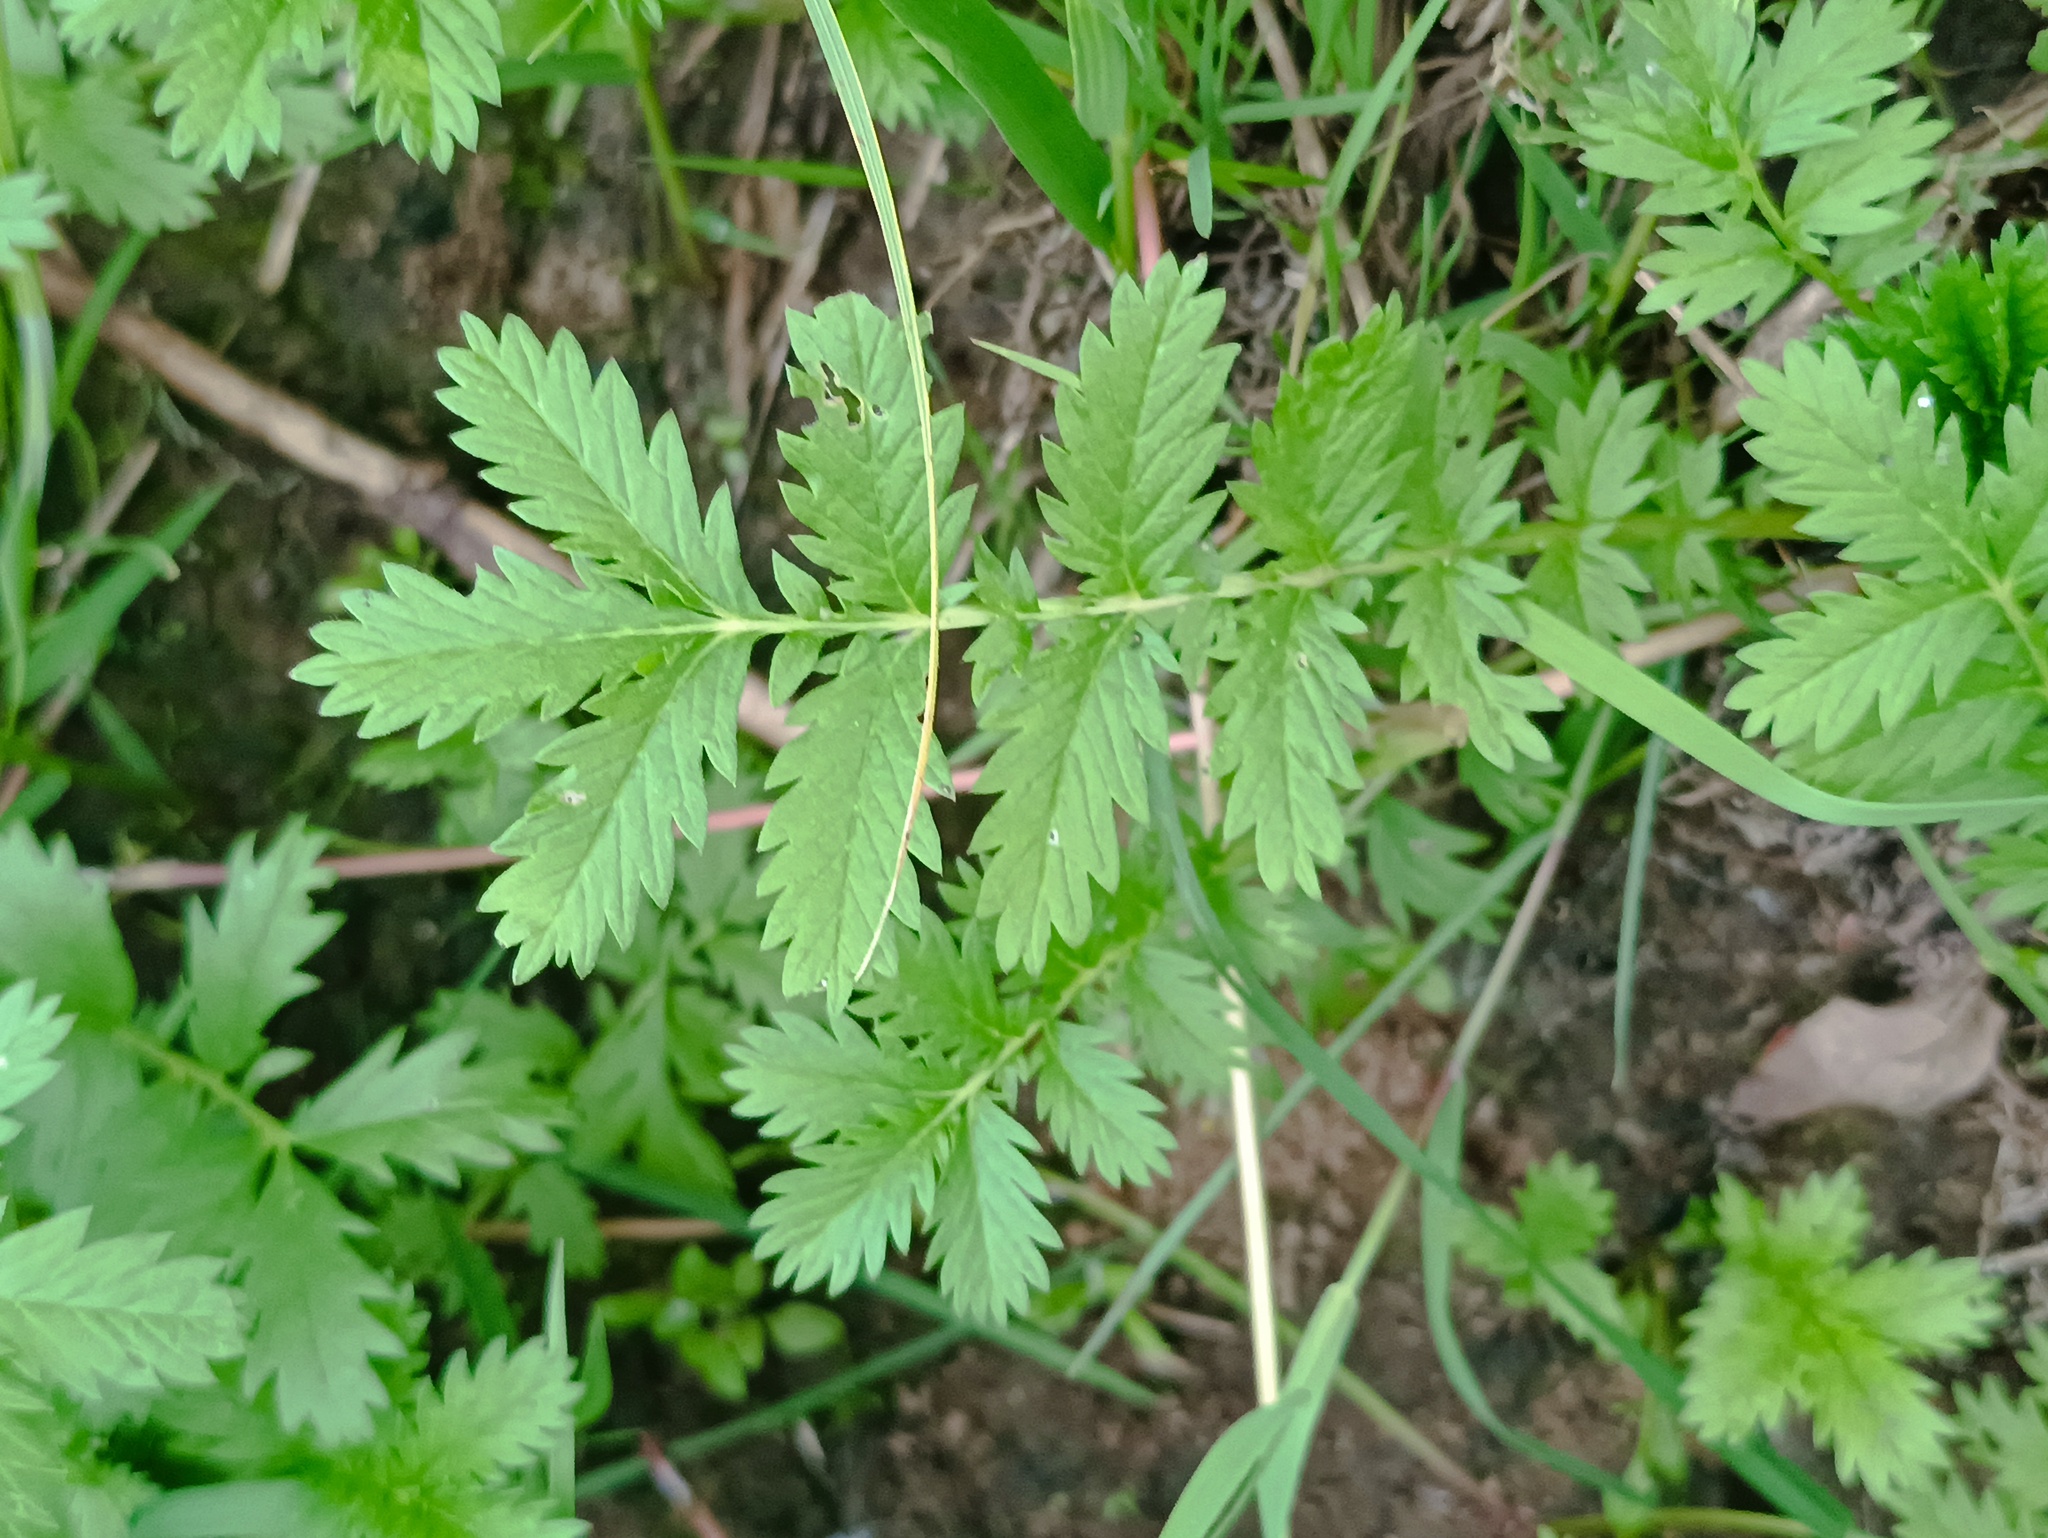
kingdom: Plantae
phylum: Tracheophyta
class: Magnoliopsida
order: Rosales
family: Rosaceae
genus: Argentina
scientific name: Argentina anserina
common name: Common silverweed
